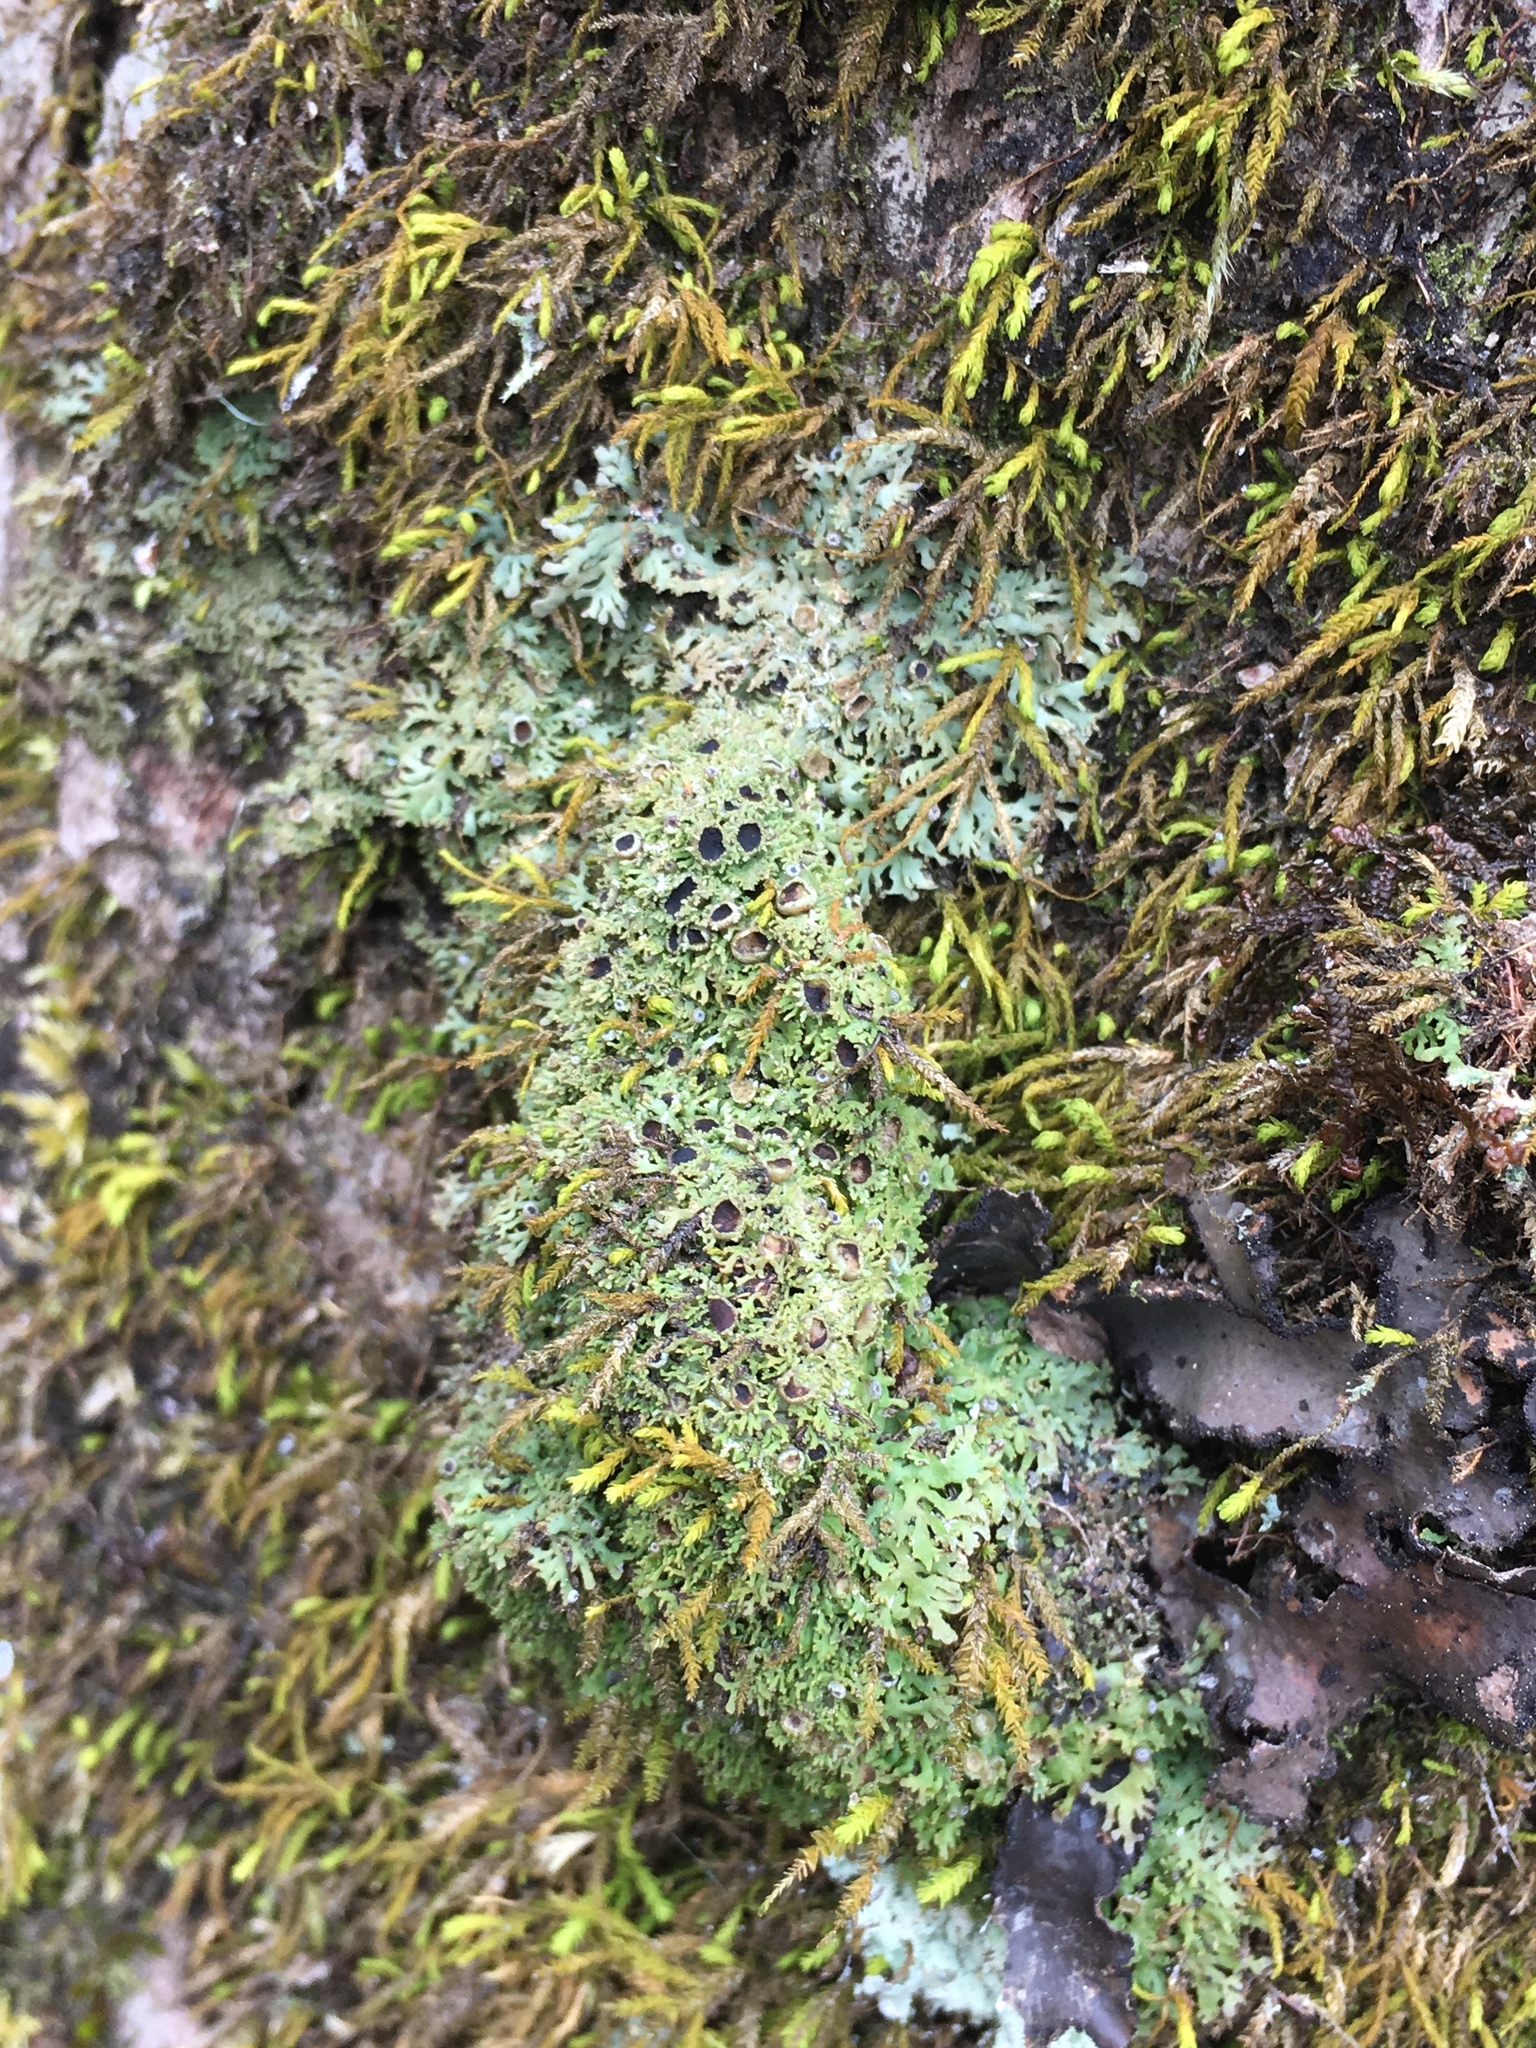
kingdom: Fungi
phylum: Ascomycota
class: Lecanoromycetes
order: Caliciales
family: Physciaceae
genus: Kurokawia
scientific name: Kurokawia palmulata
